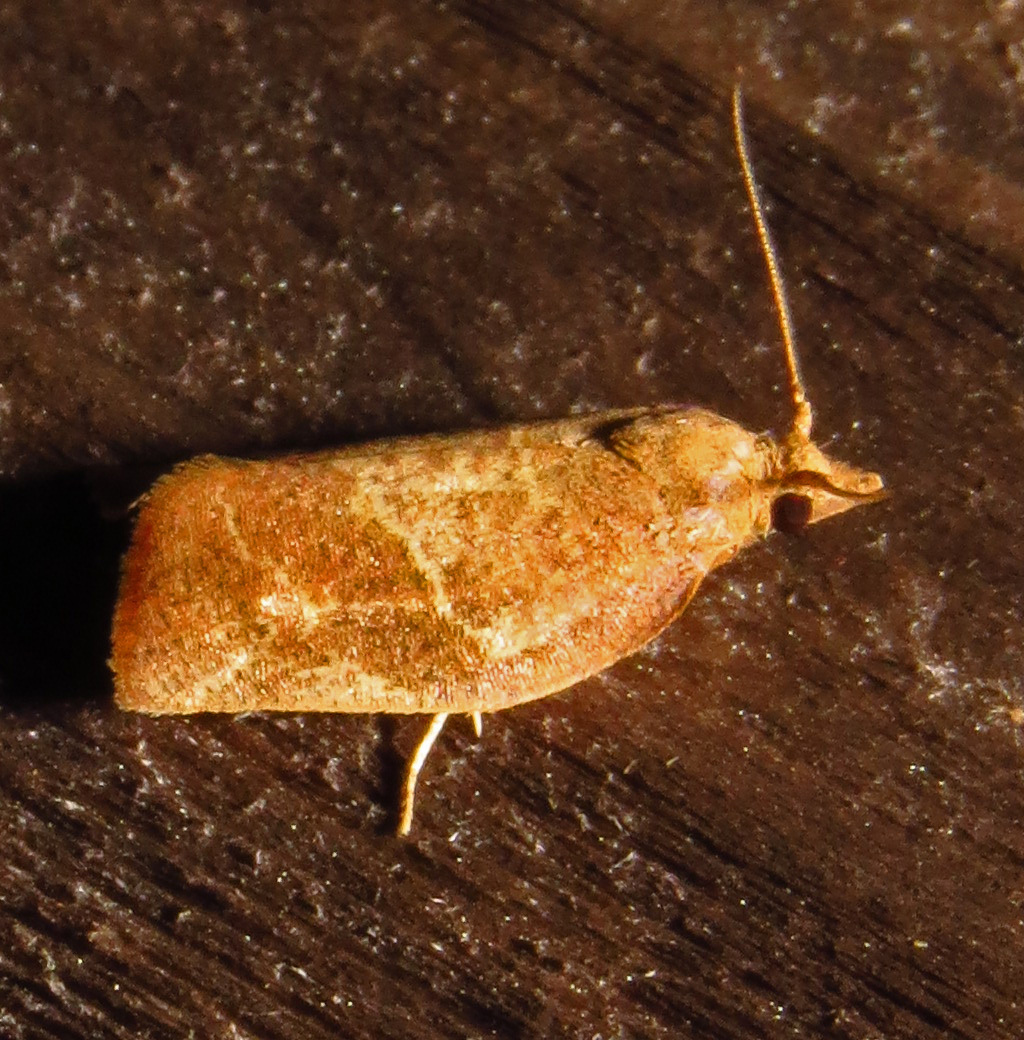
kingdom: Animalia
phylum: Arthropoda
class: Insecta
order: Lepidoptera
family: Tortricidae
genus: Pandemis
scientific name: Pandemis limitata
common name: Three-lined leafroller moth
